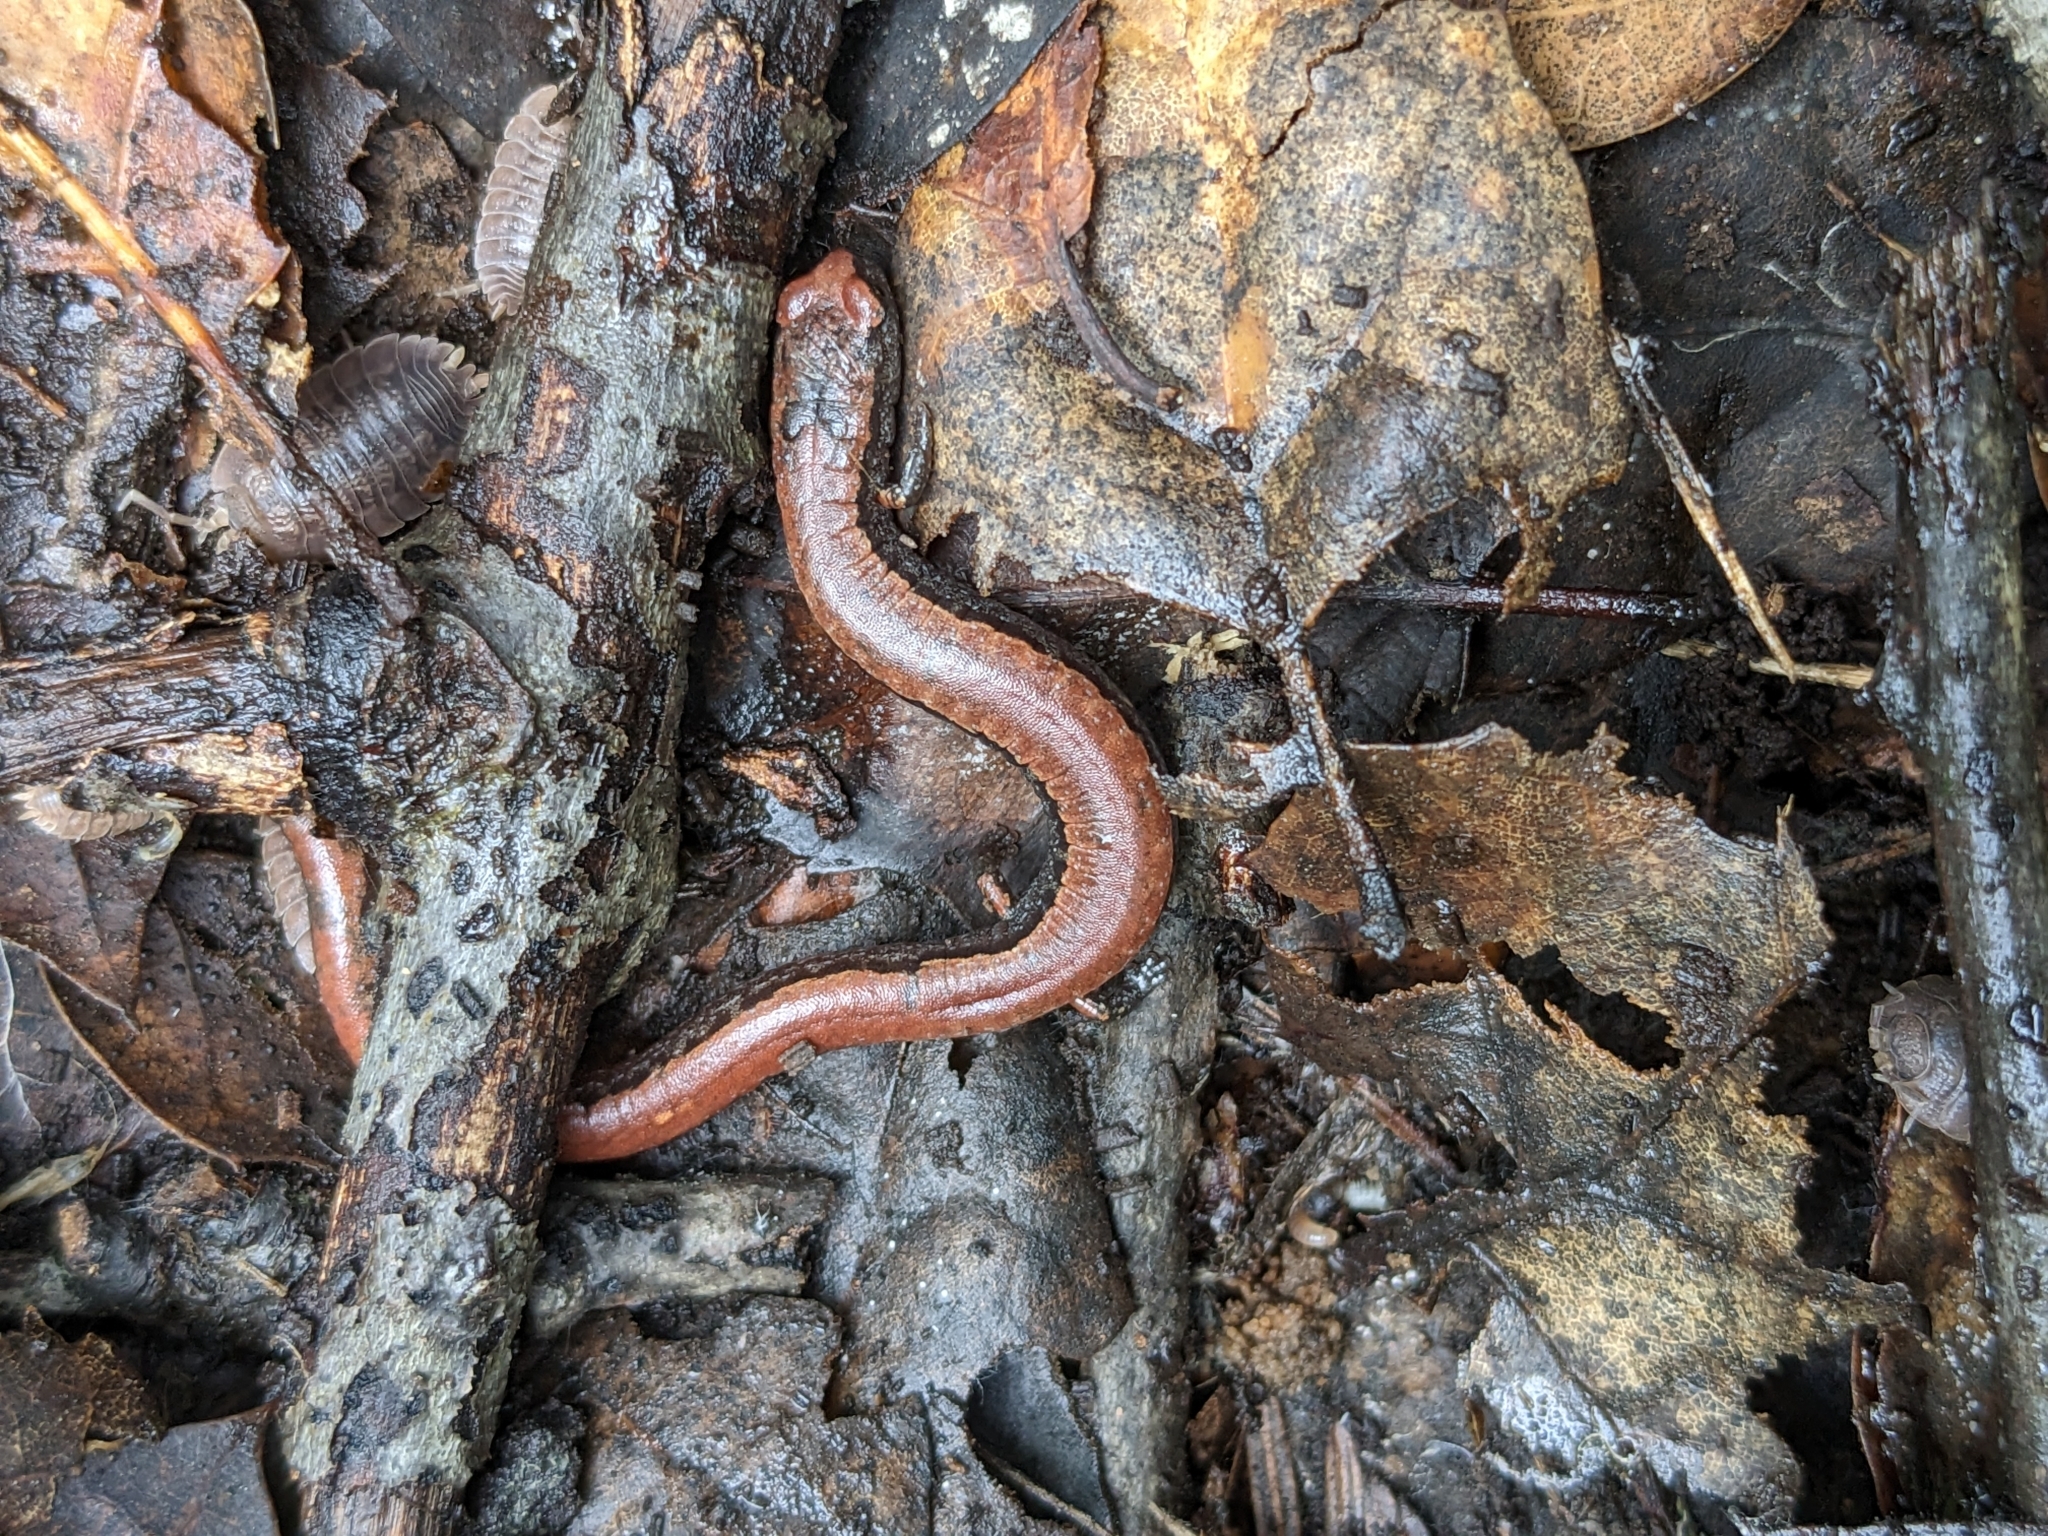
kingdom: Animalia
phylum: Chordata
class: Amphibia
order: Caudata
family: Plethodontidae
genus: Batrachoseps
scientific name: Batrachoseps attenuatus
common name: California slender salamander
